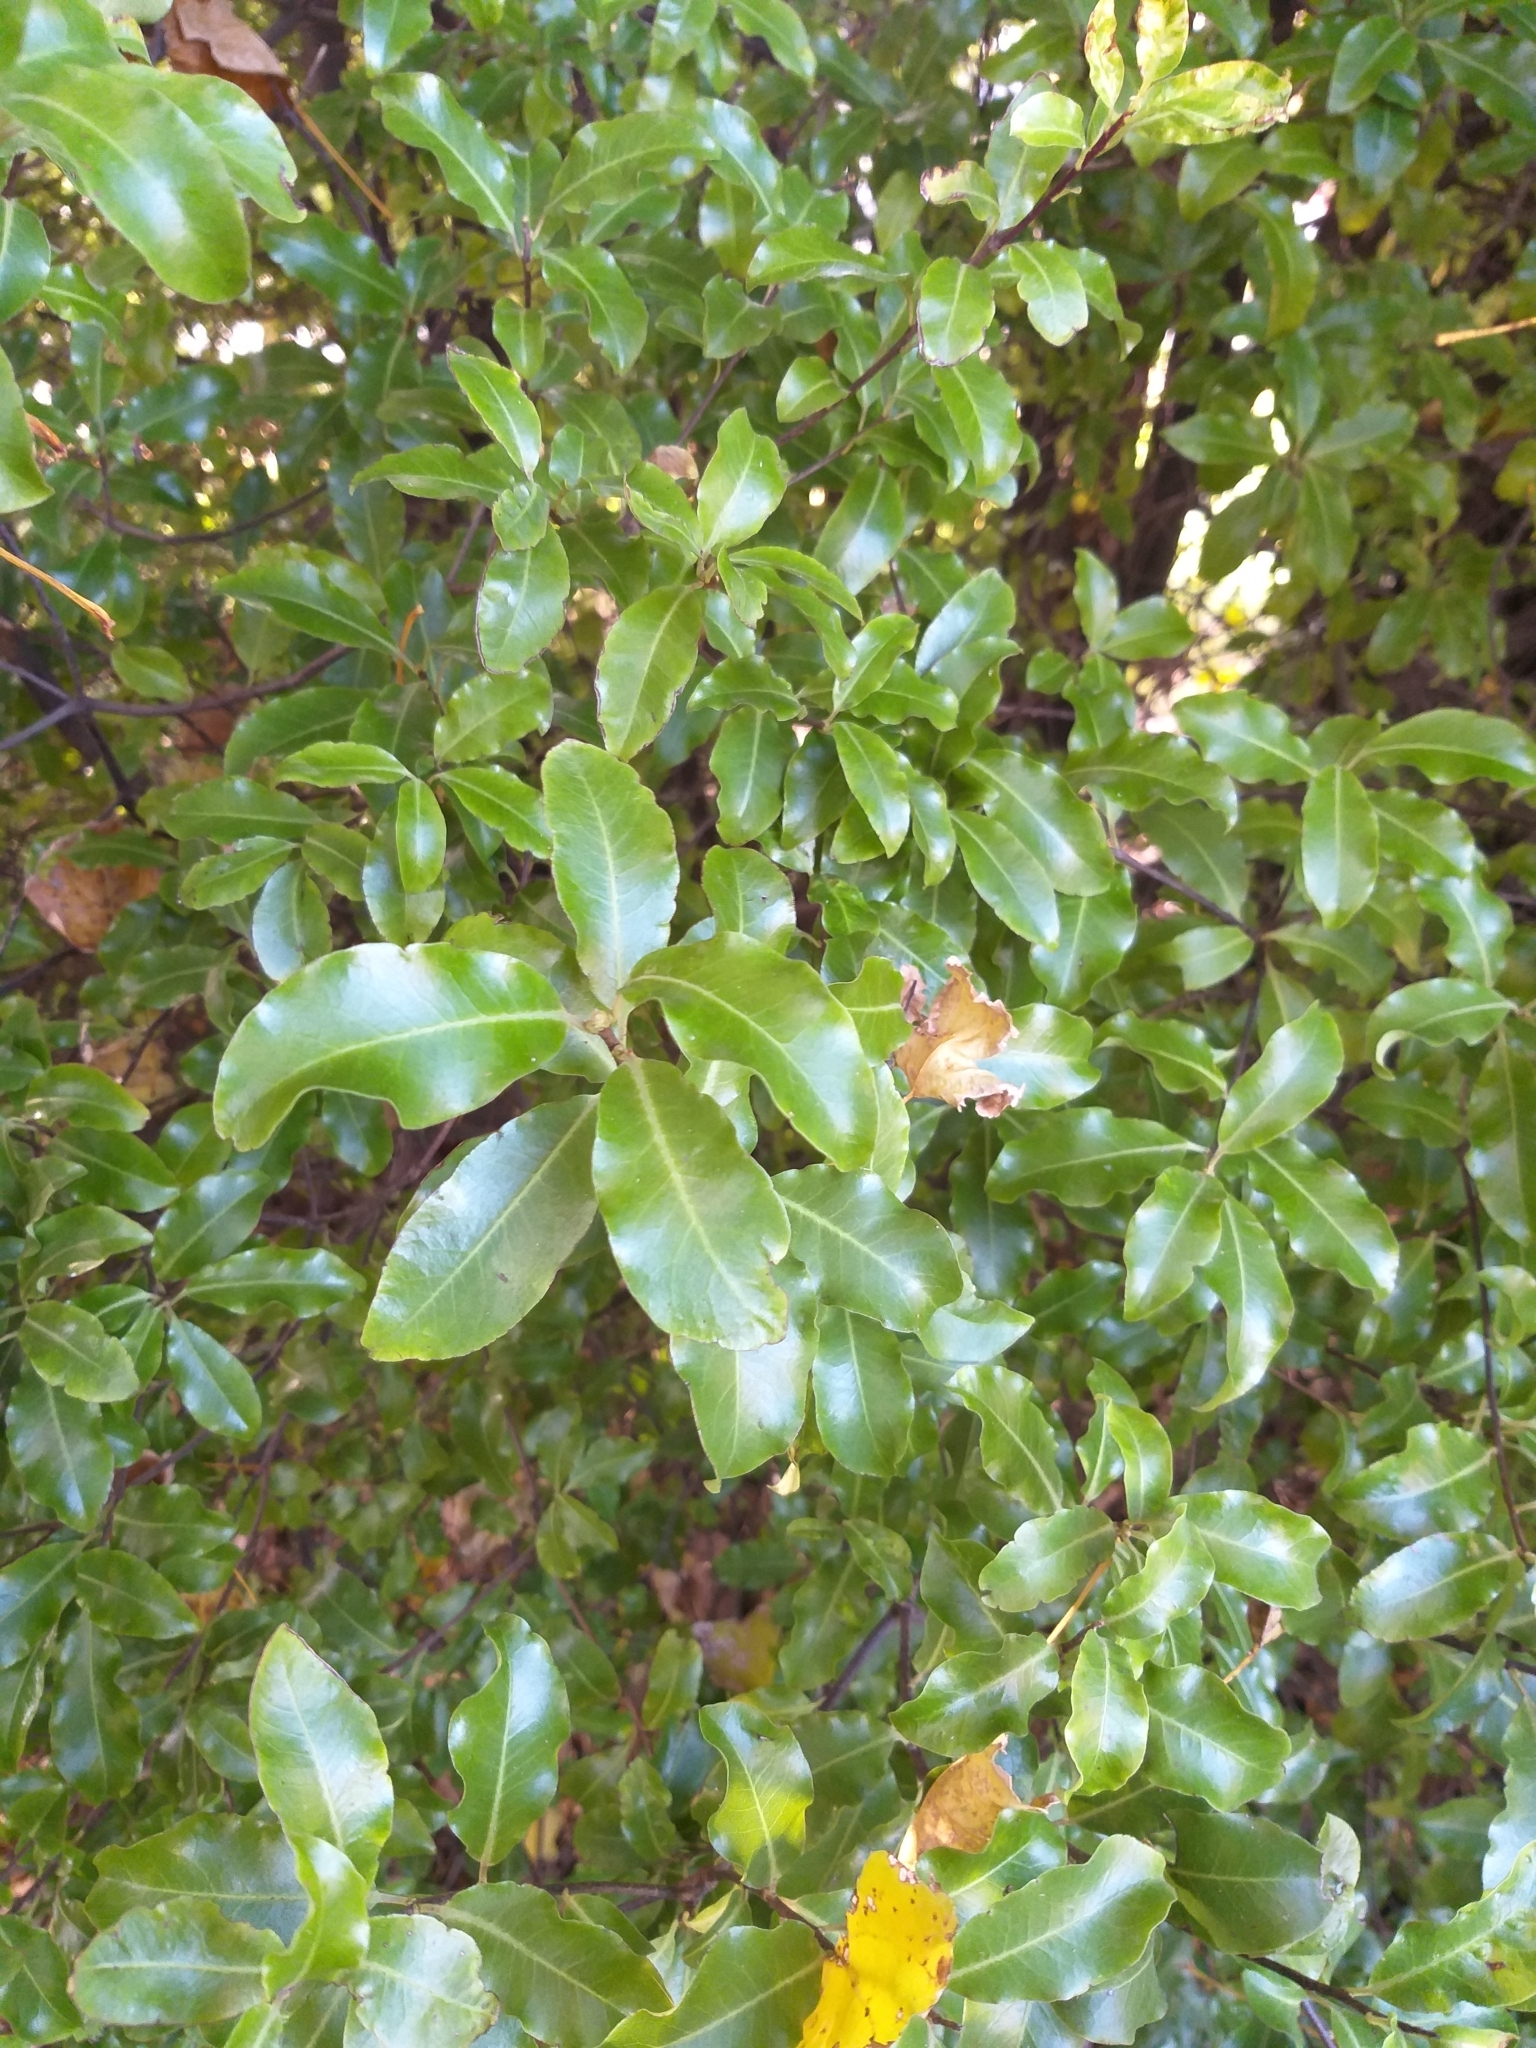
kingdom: Plantae
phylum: Tracheophyta
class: Magnoliopsida
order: Apiales
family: Pittosporaceae
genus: Pittosporum
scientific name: Pittosporum tenuifolium
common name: Kohuhu
